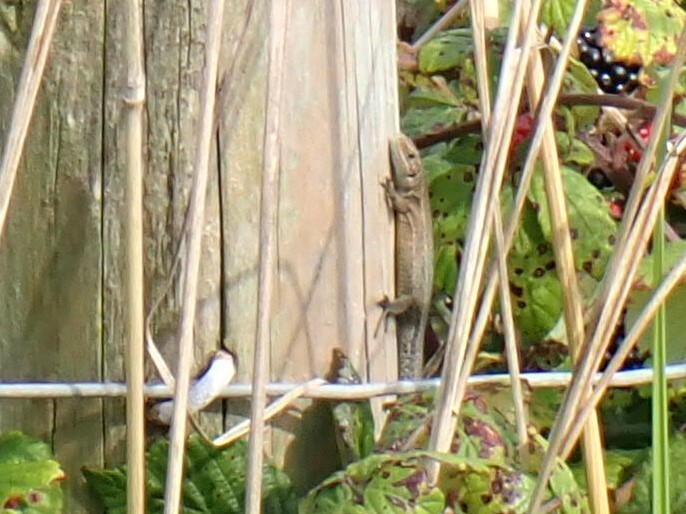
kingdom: Animalia
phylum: Chordata
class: Squamata
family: Lacertidae
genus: Zootoca
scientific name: Zootoca vivipara
